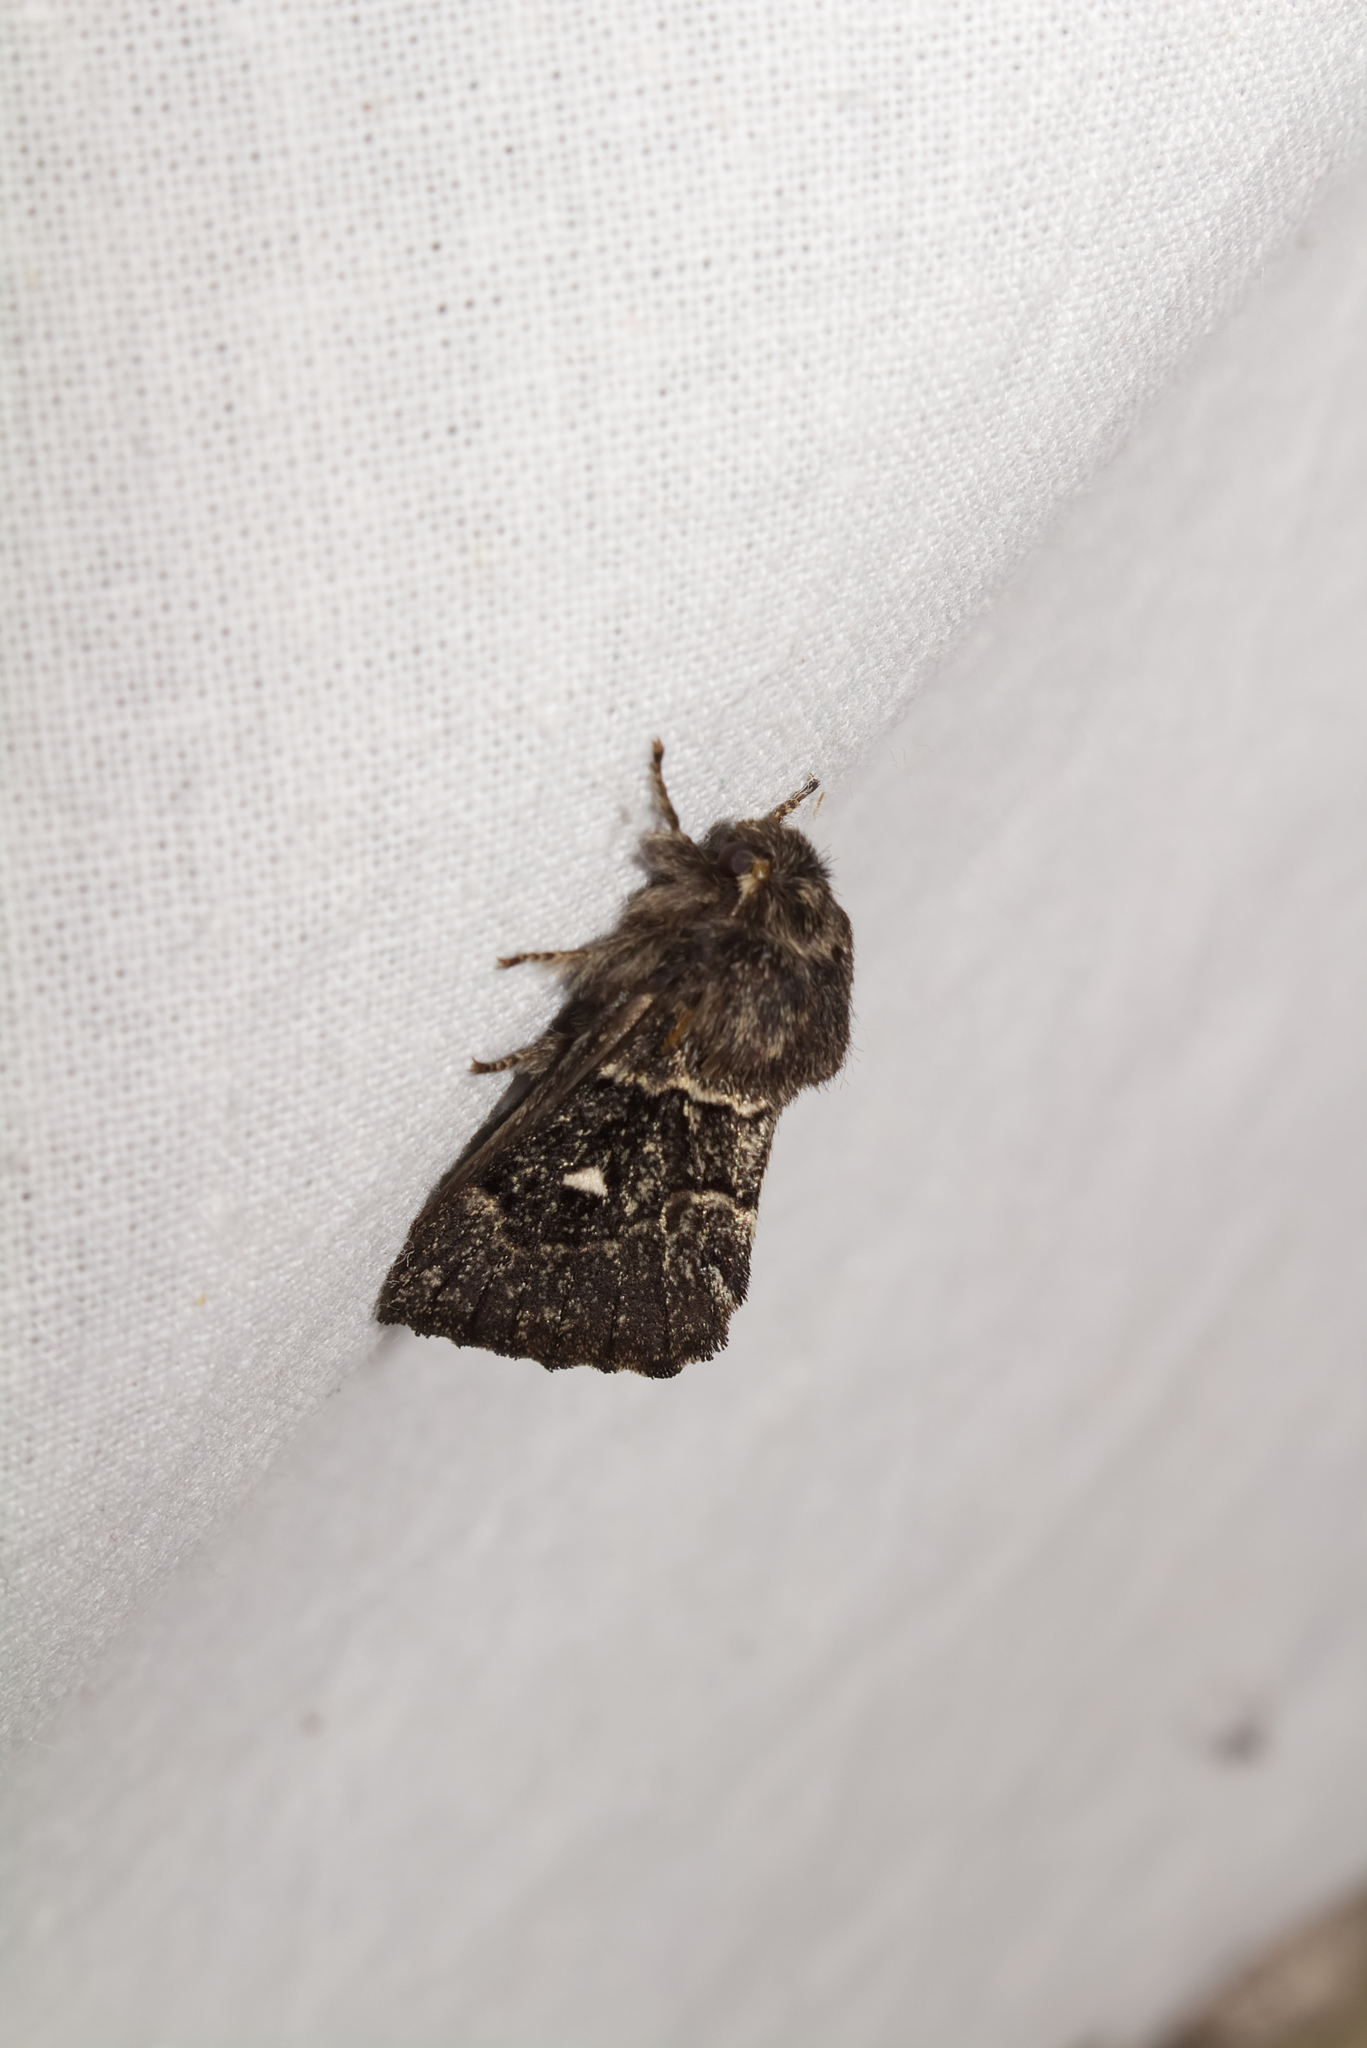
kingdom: Animalia
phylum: Arthropoda
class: Insecta
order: Lepidoptera
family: Lasiocampidae
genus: Cosmotriche
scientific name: Cosmotriche lobulina
